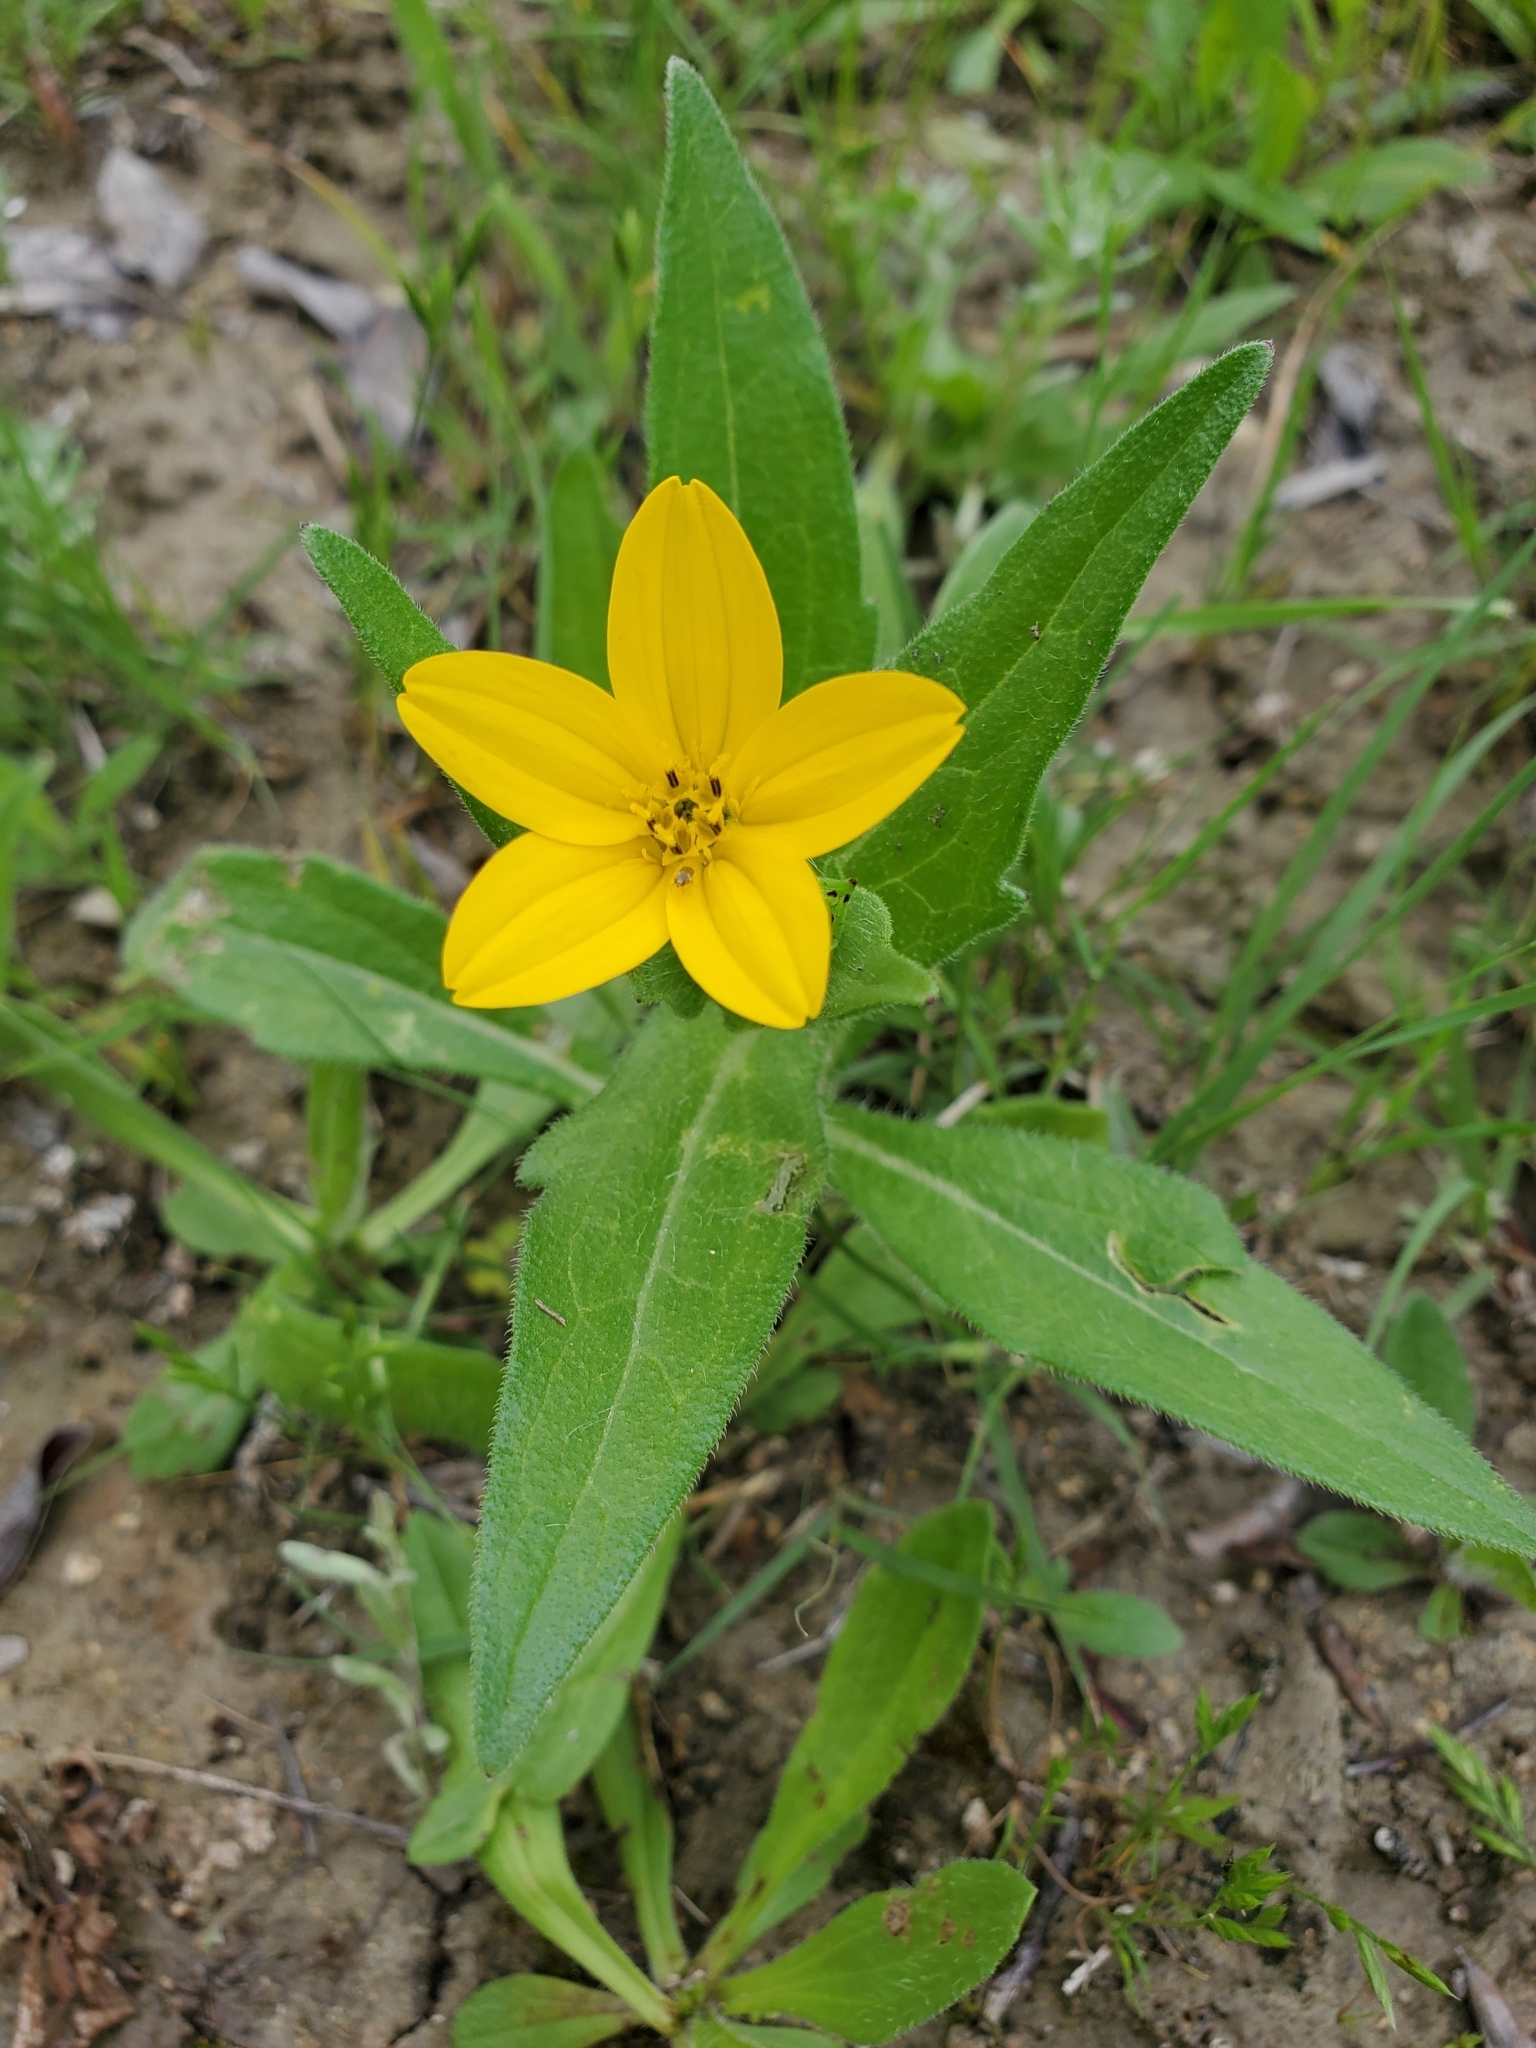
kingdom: Plantae
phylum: Tracheophyta
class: Magnoliopsida
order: Asterales
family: Asteraceae
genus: Lindheimera
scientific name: Lindheimera texana
